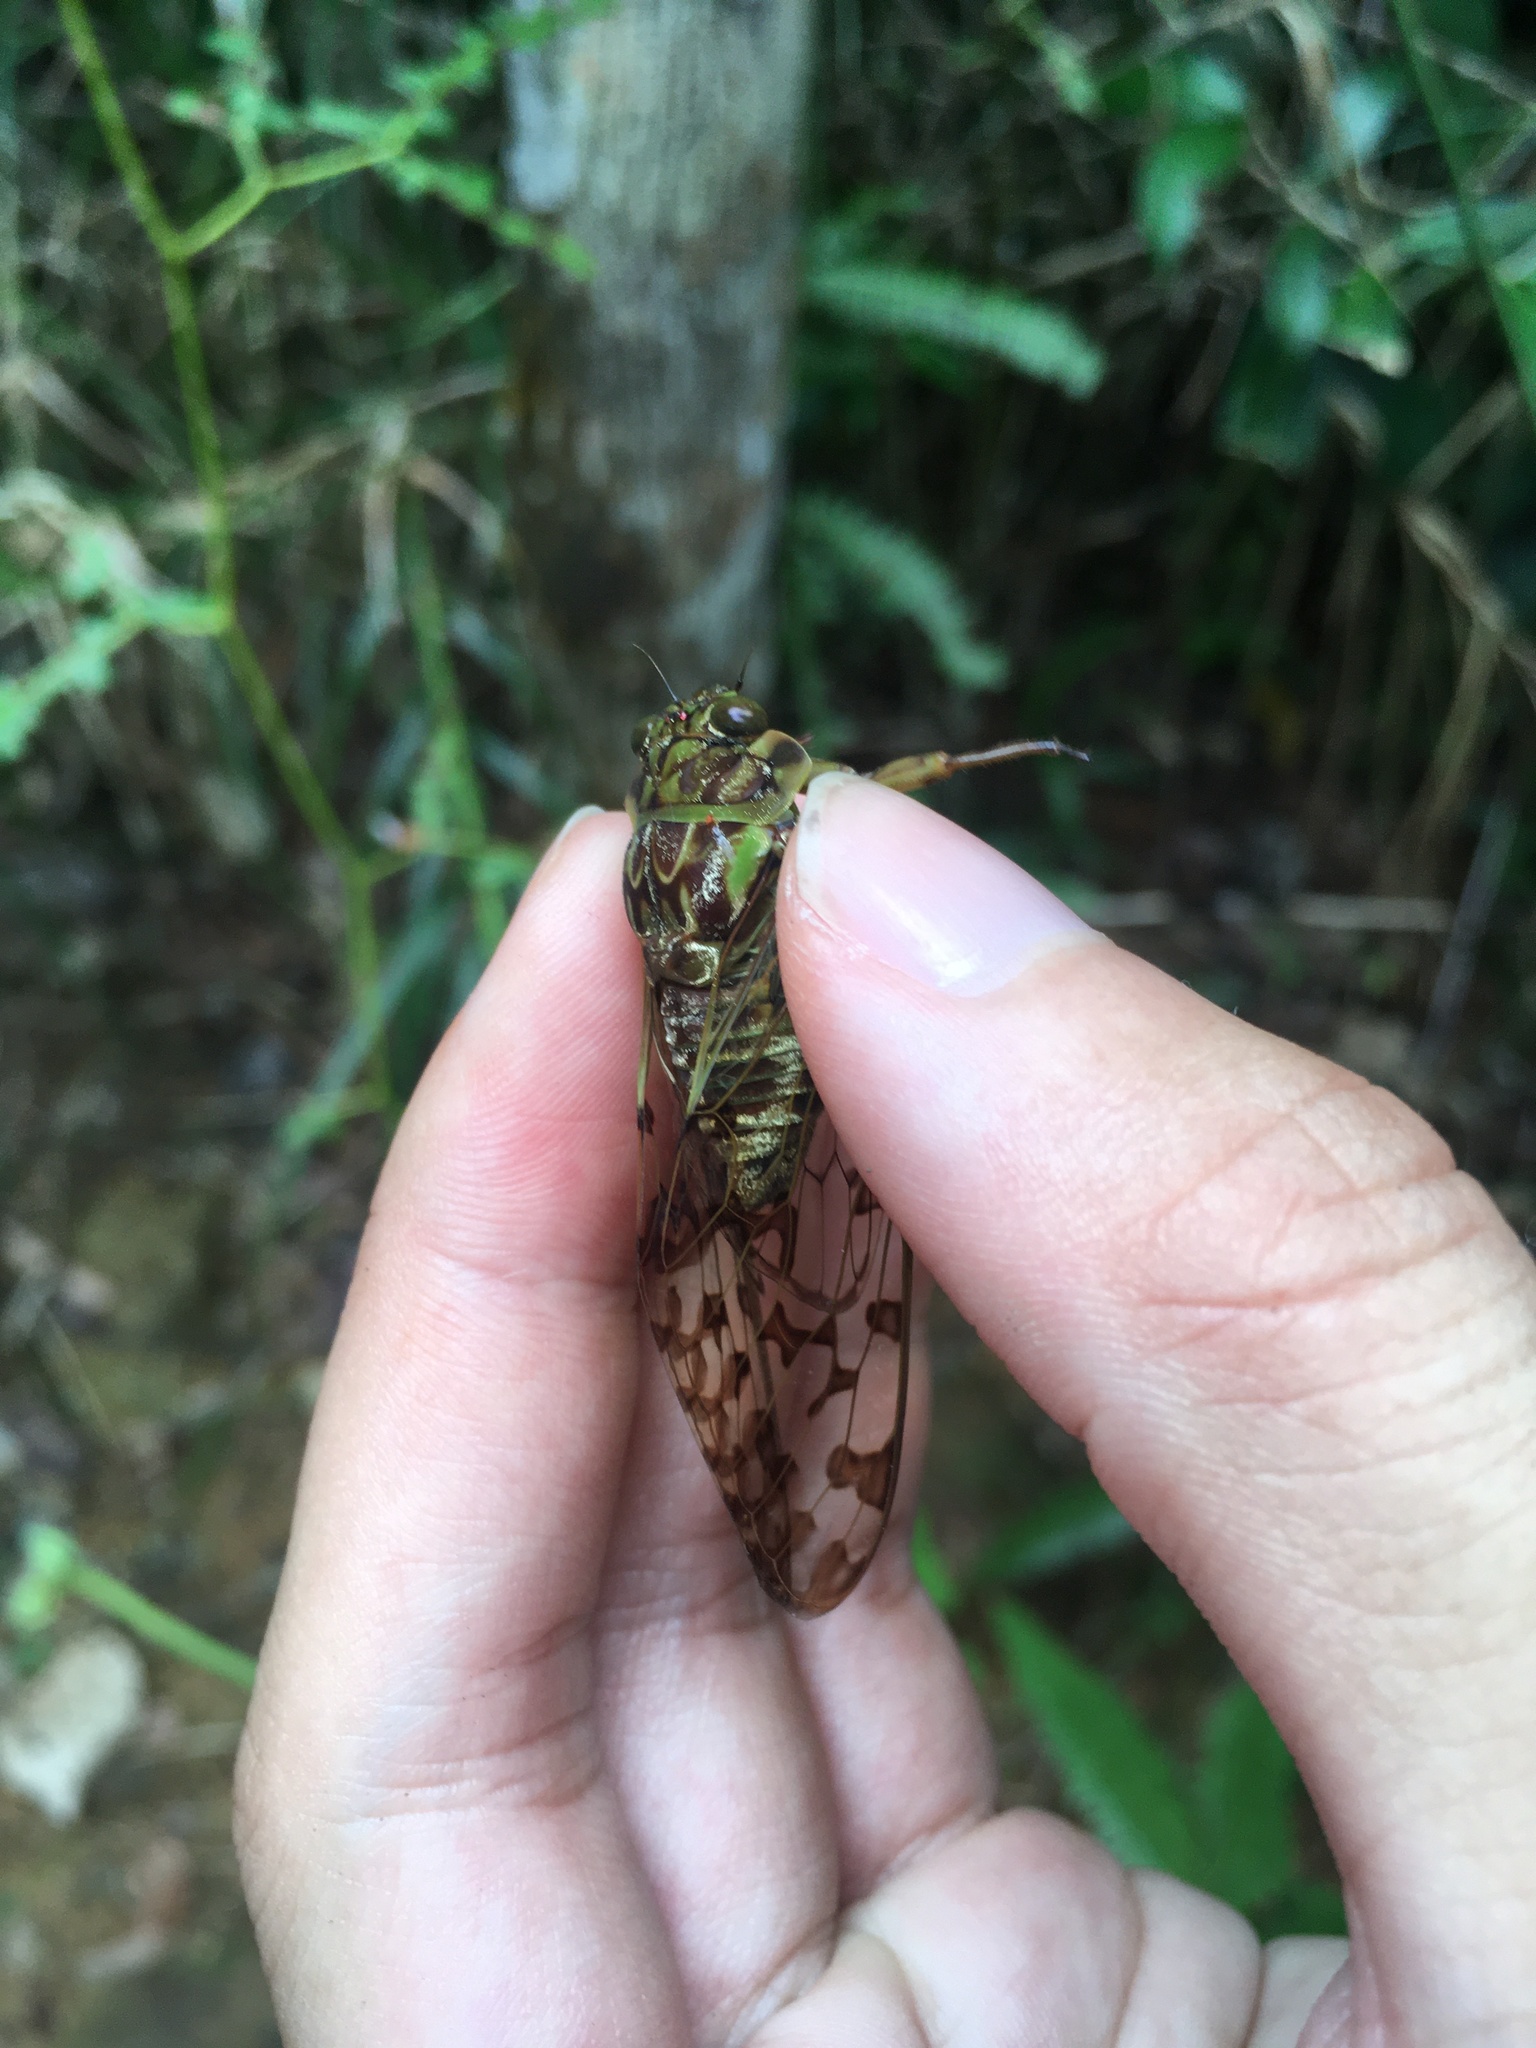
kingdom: Animalia
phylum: Arthropoda
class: Insecta
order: Hemiptera
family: Cicadidae
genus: Zammara
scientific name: Zammara nigriplaga
